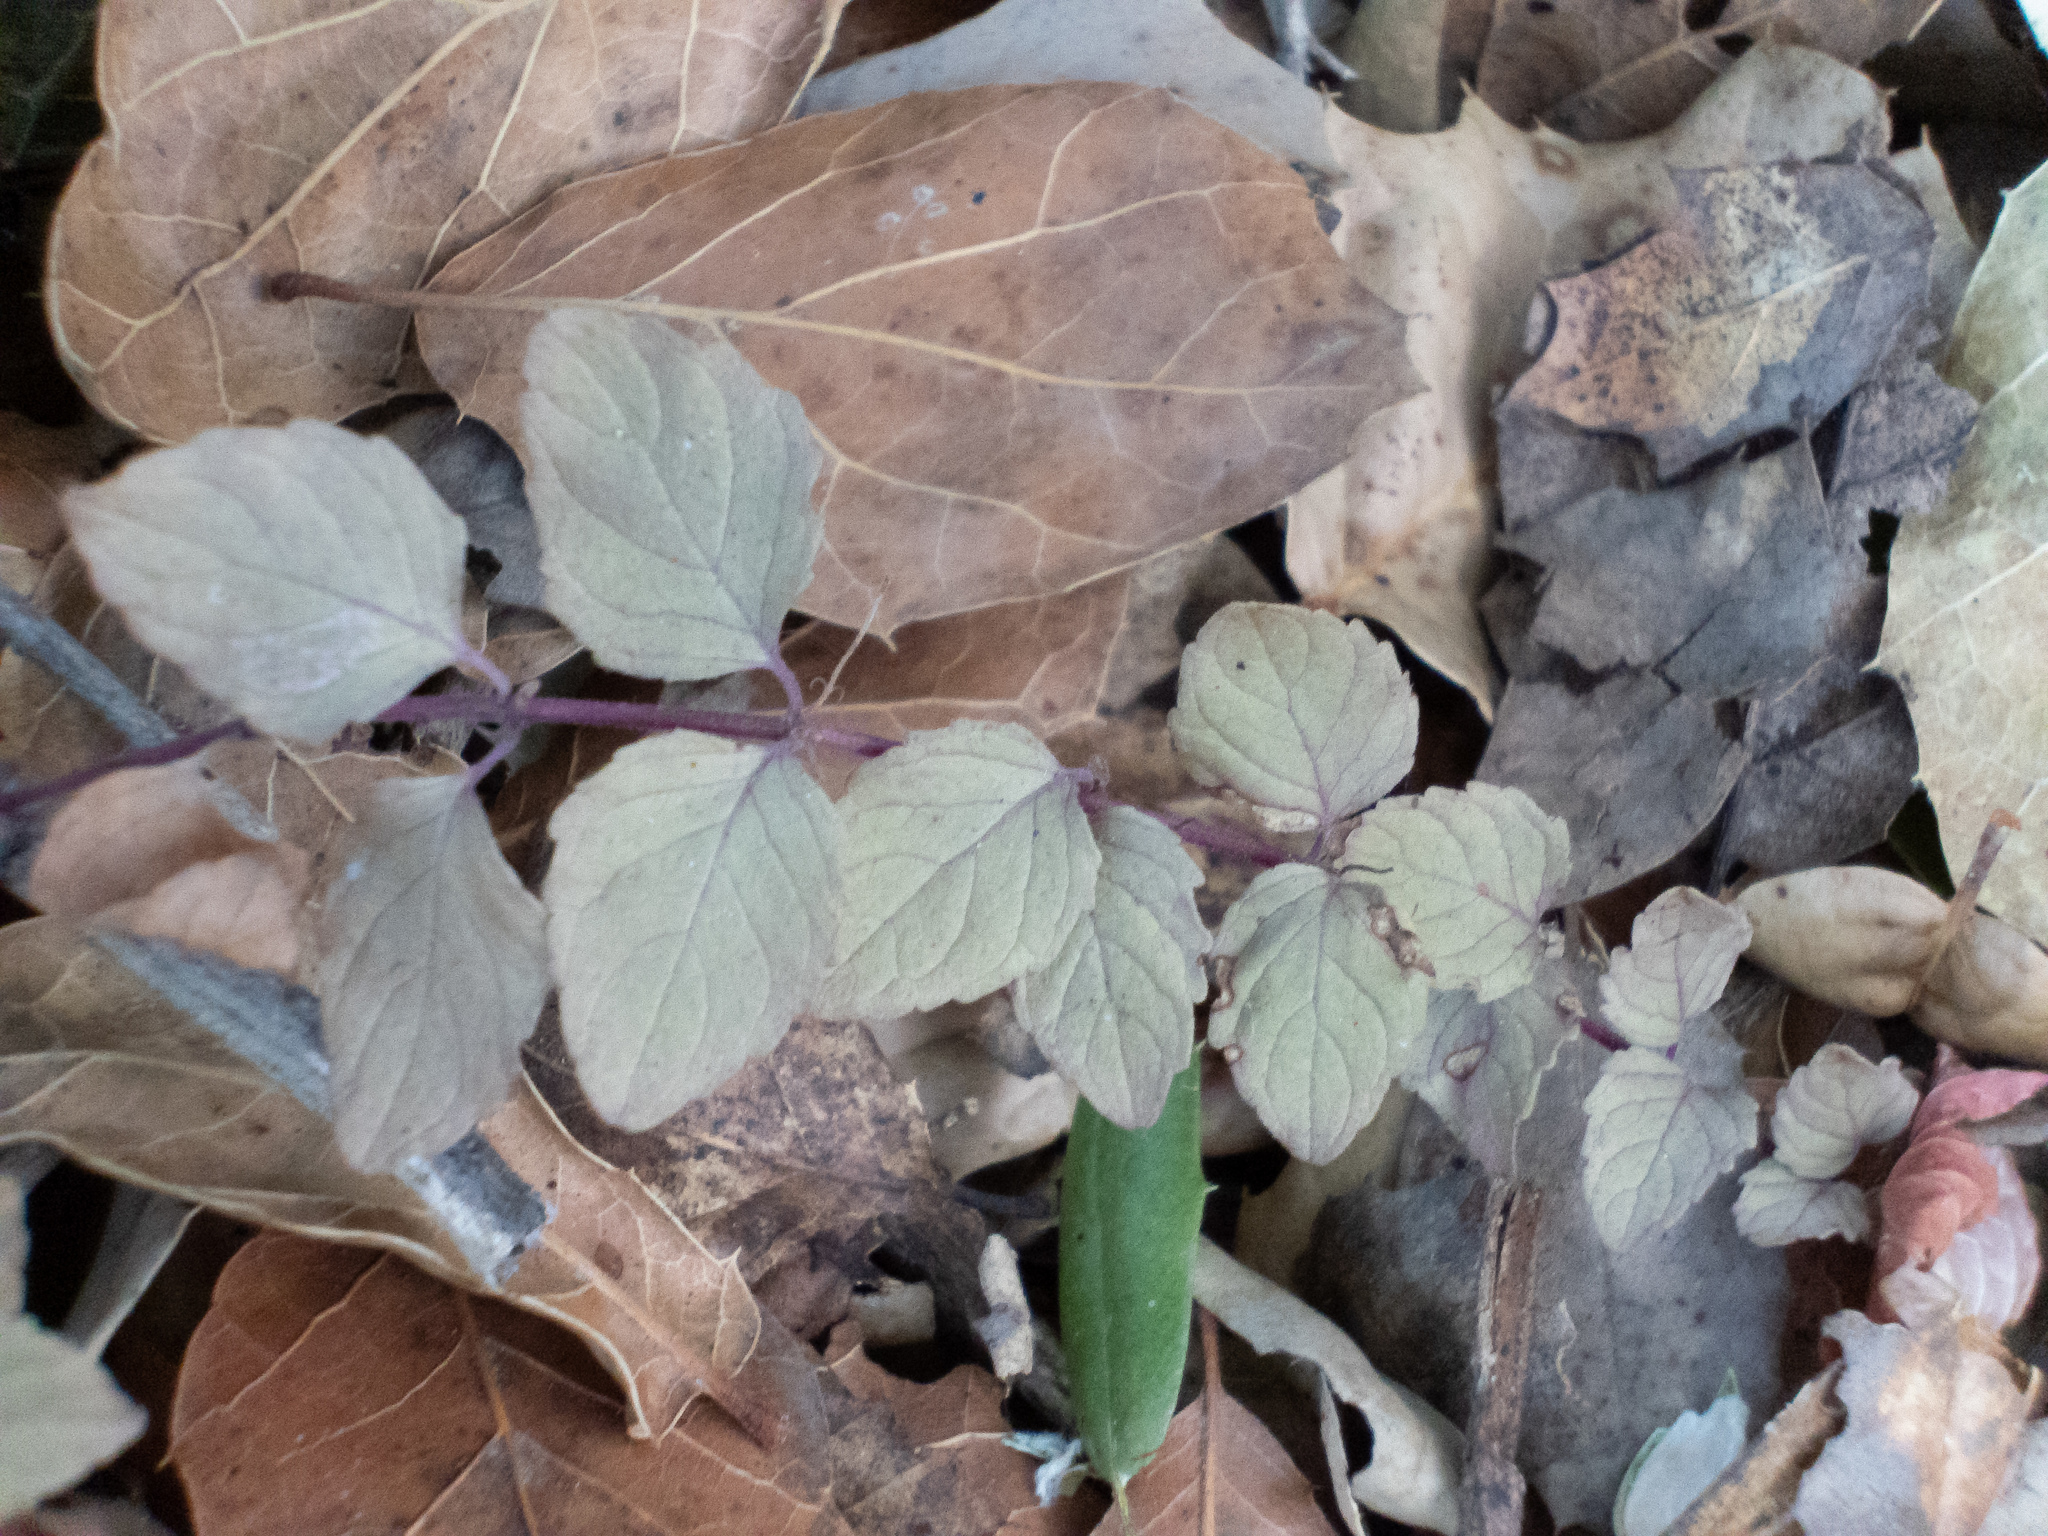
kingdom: Plantae
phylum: Tracheophyta
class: Magnoliopsida
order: Lamiales
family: Lamiaceae
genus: Micromeria
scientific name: Micromeria douglasii
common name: Yerba buena
